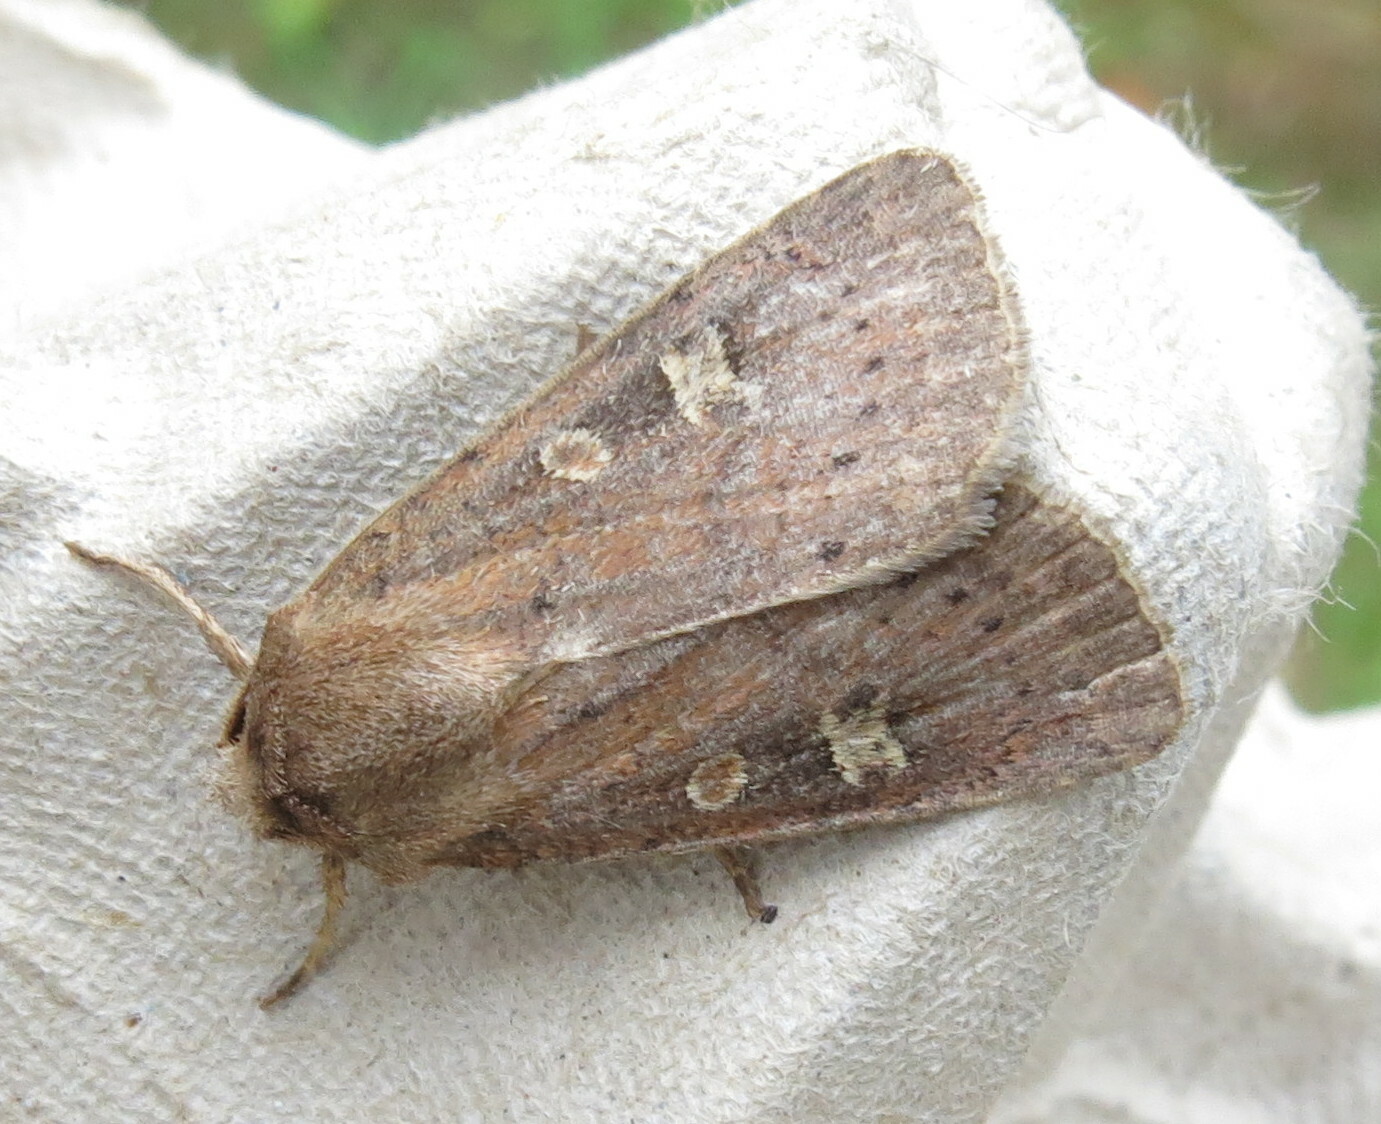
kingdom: Animalia
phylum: Arthropoda
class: Insecta
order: Lepidoptera
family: Noctuidae
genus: Xestia
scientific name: Xestia xanthographa
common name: Square-spot rustic
